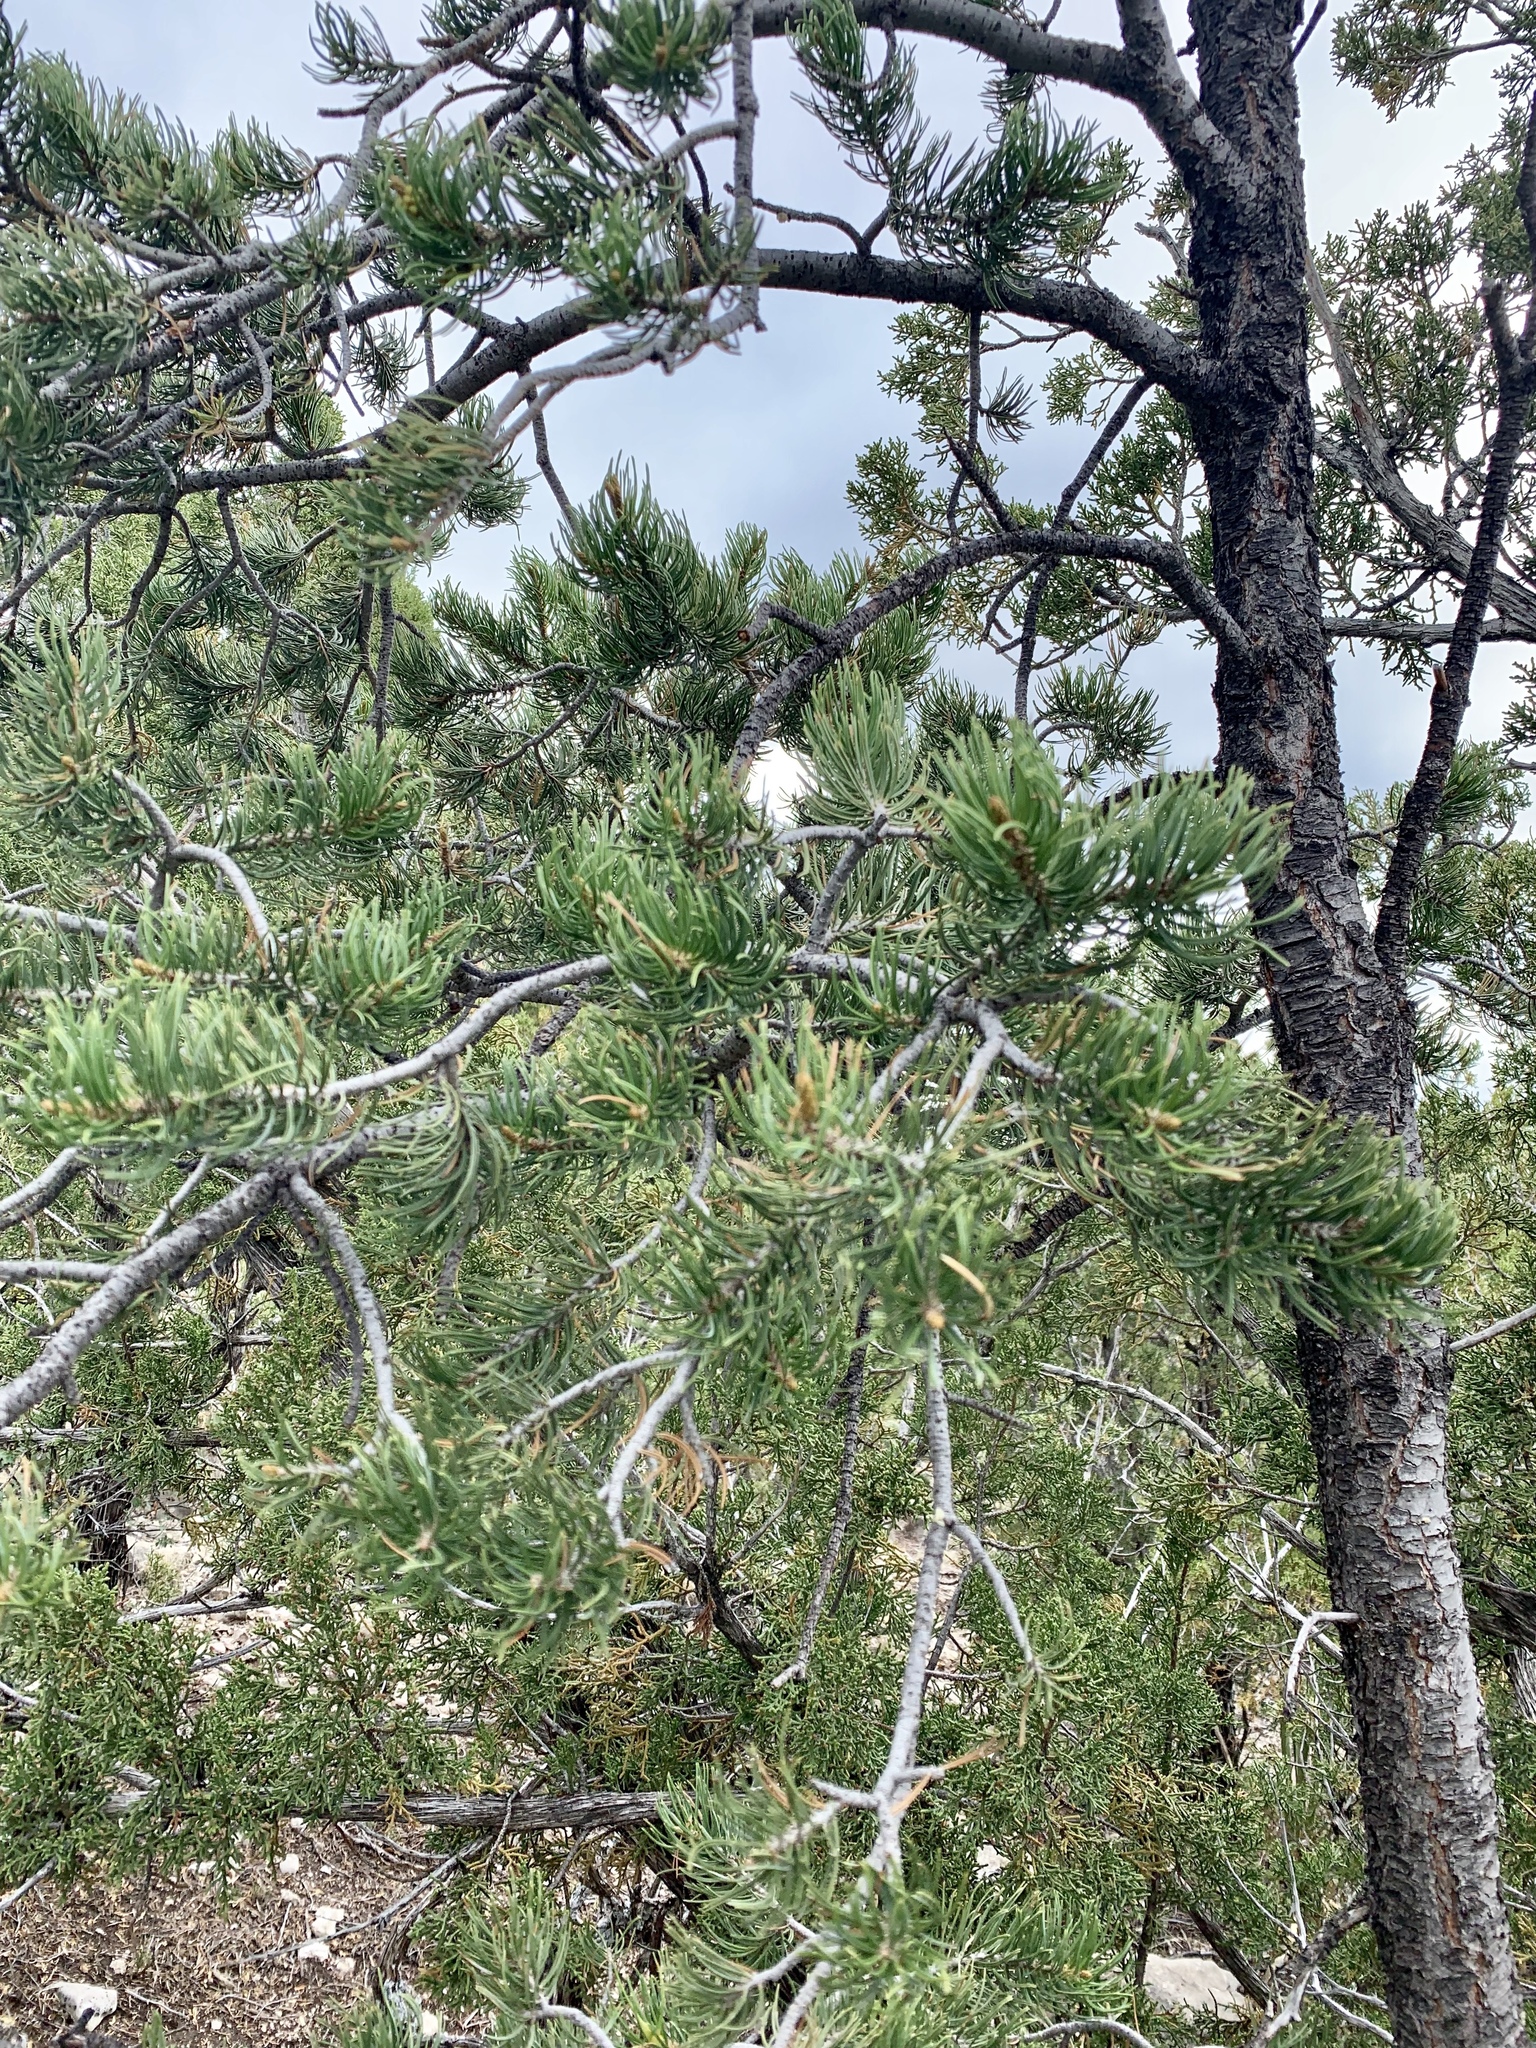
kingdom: Plantae
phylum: Tracheophyta
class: Pinopsida
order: Pinales
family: Pinaceae
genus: Pinus
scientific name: Pinus edulis
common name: Colorado pinyon
